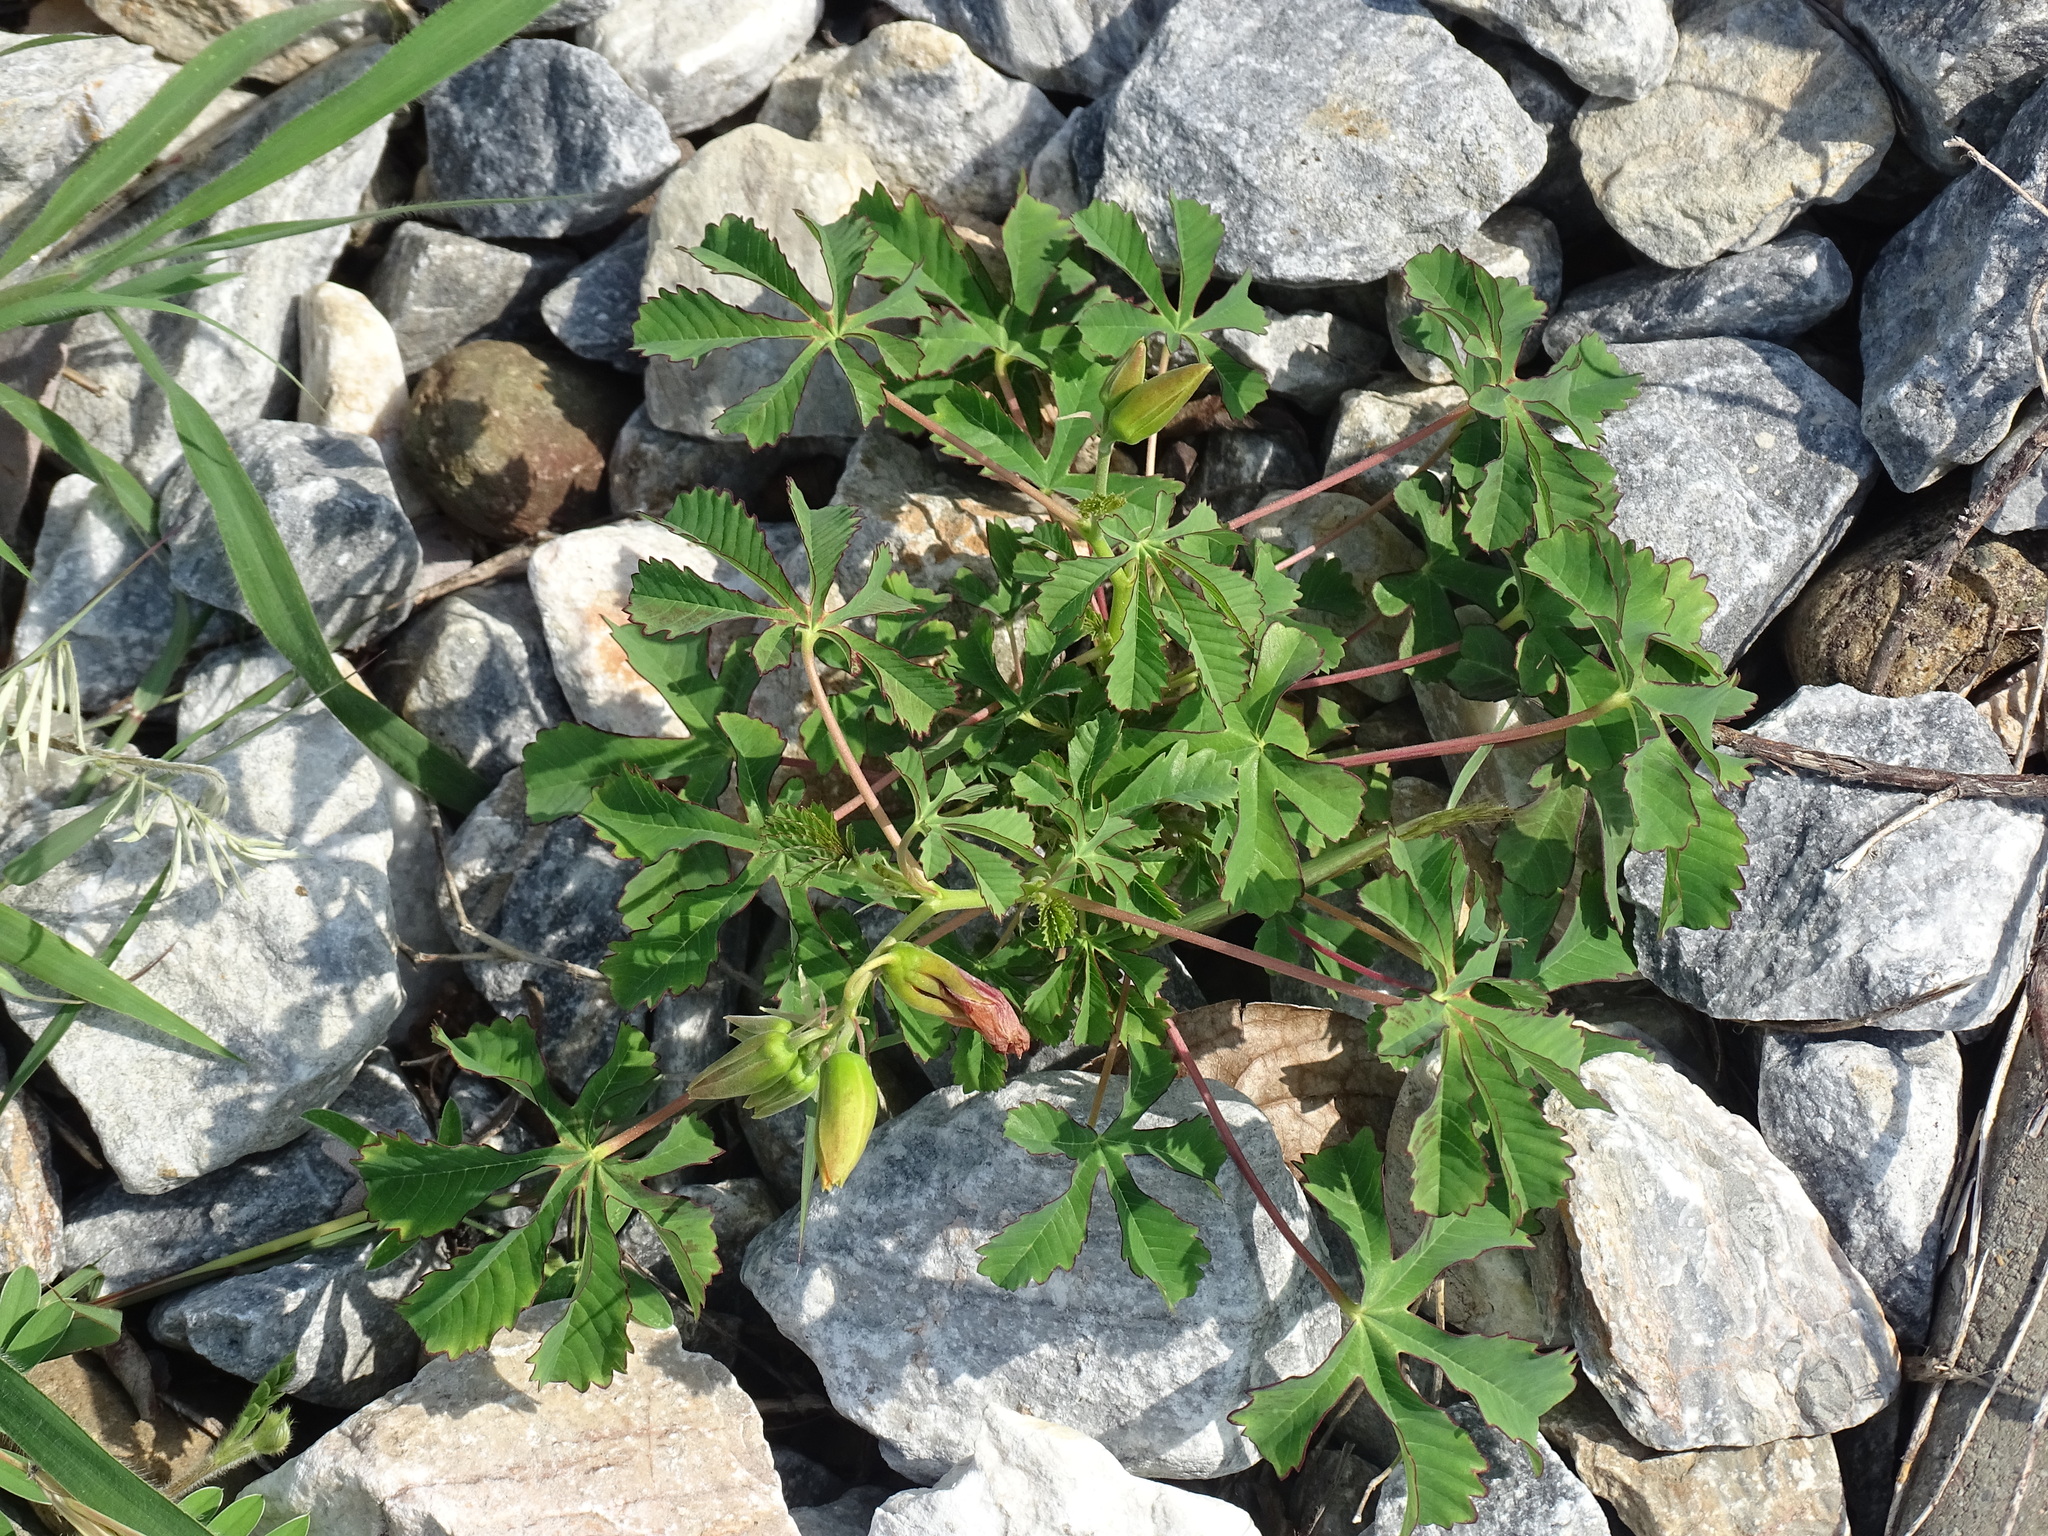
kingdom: Plantae
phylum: Tracheophyta
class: Magnoliopsida
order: Malvales
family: Cochlospermaceae
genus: Cochlospermum
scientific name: Cochlospermum wrightii
